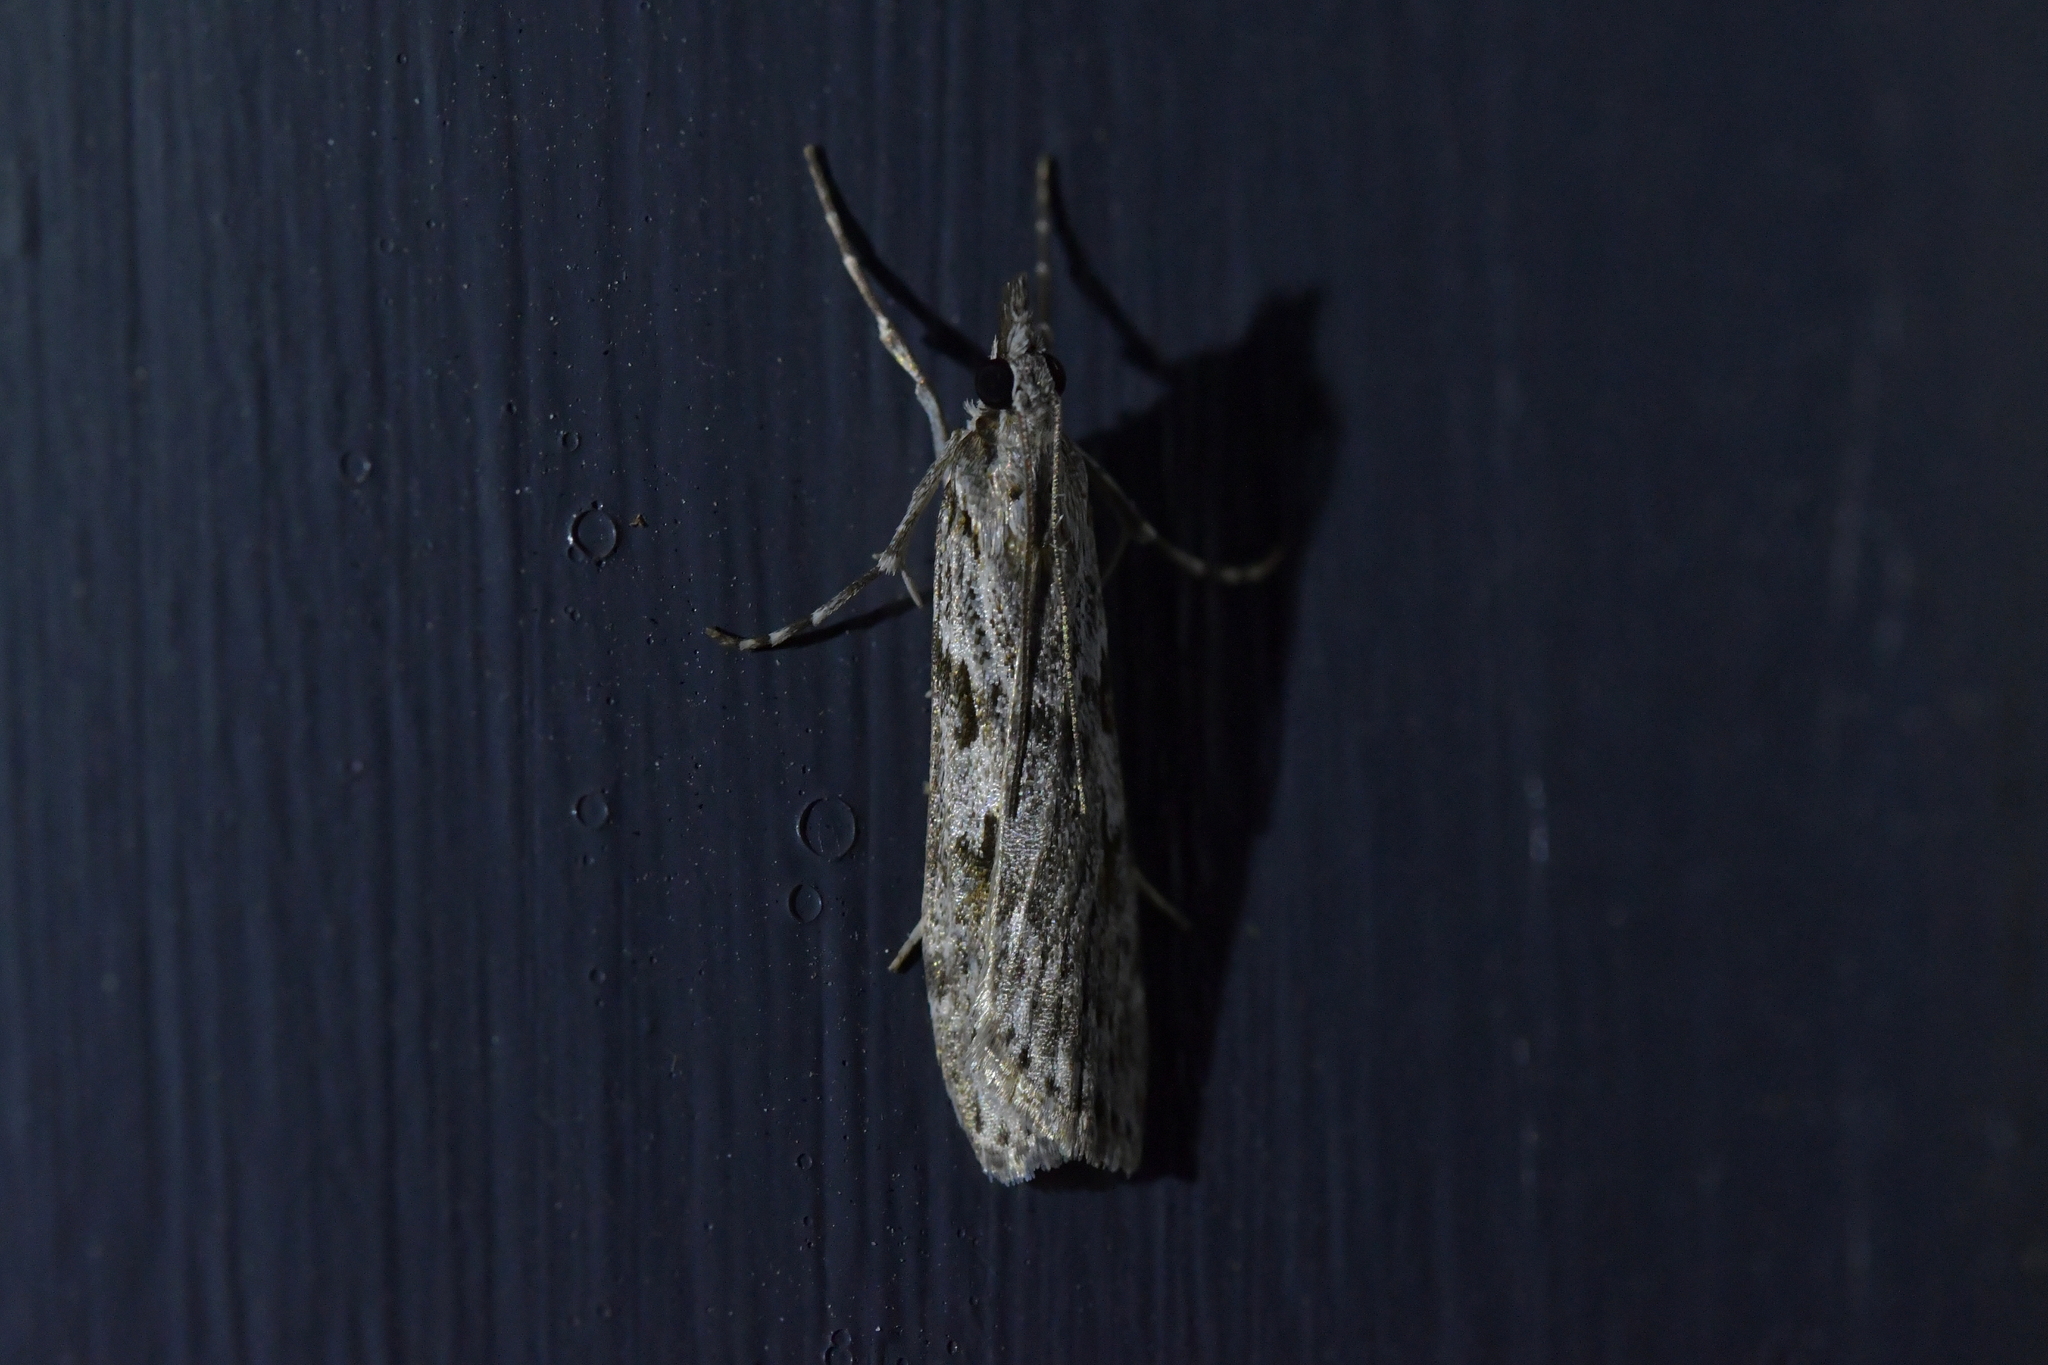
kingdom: Animalia
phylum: Arthropoda
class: Insecta
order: Lepidoptera
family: Crambidae
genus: Scoparia
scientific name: Scoparia halopis
